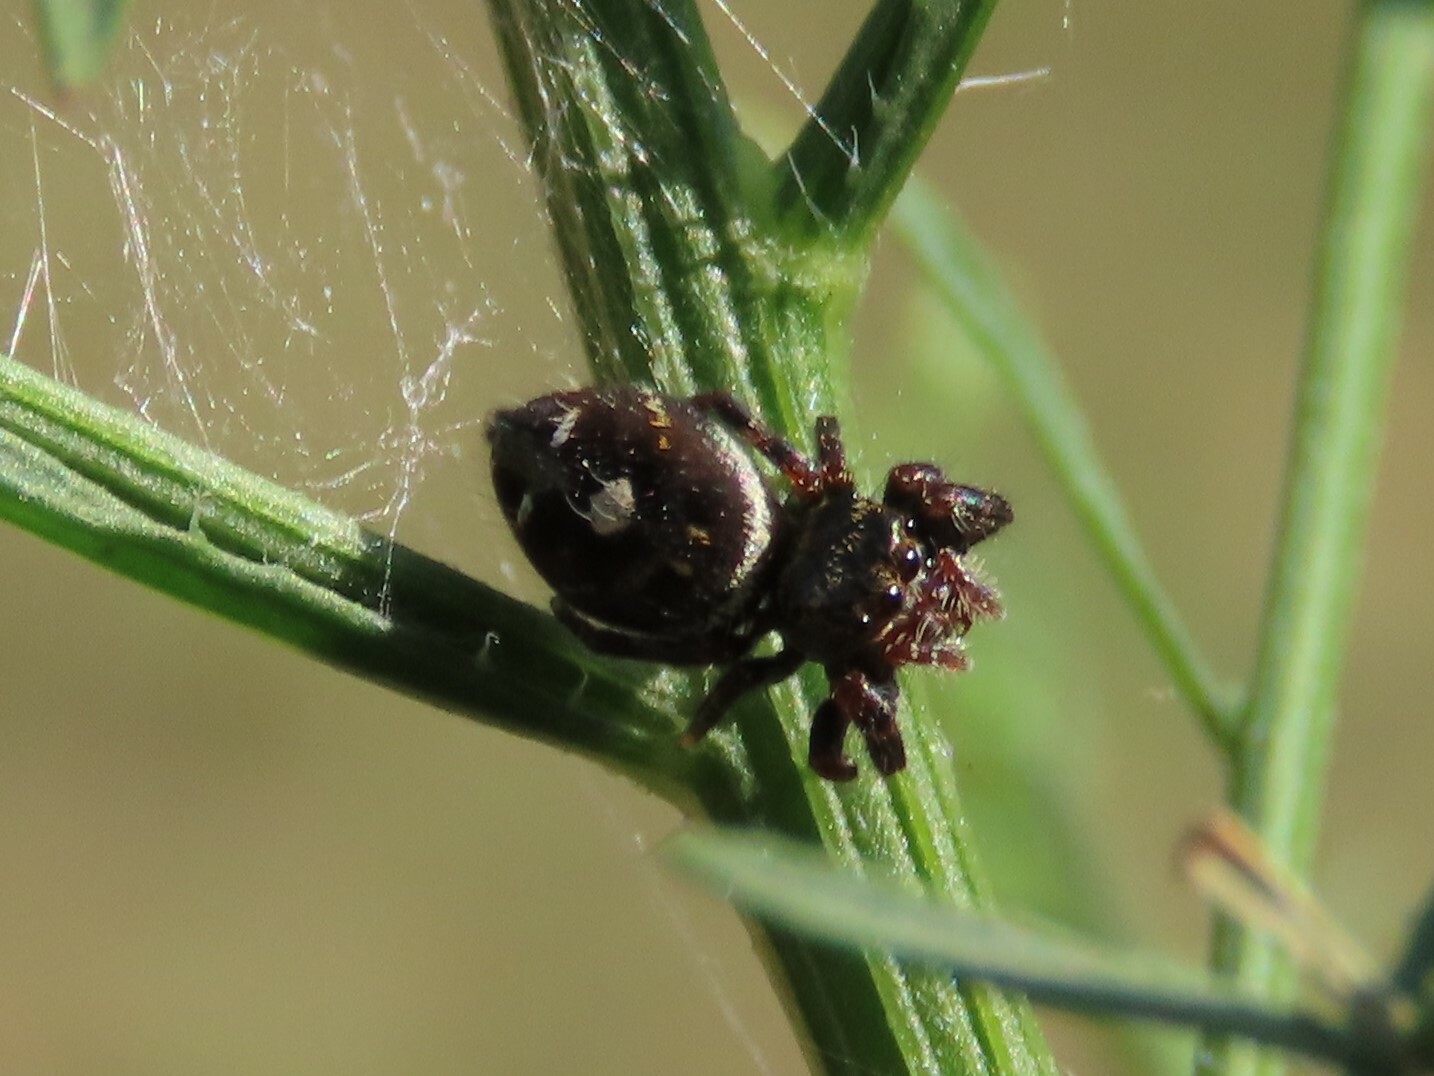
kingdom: Animalia
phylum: Arthropoda
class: Arachnida
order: Araneae
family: Salticidae
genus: Phidippus
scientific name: Phidippus audax
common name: Bold jumper
